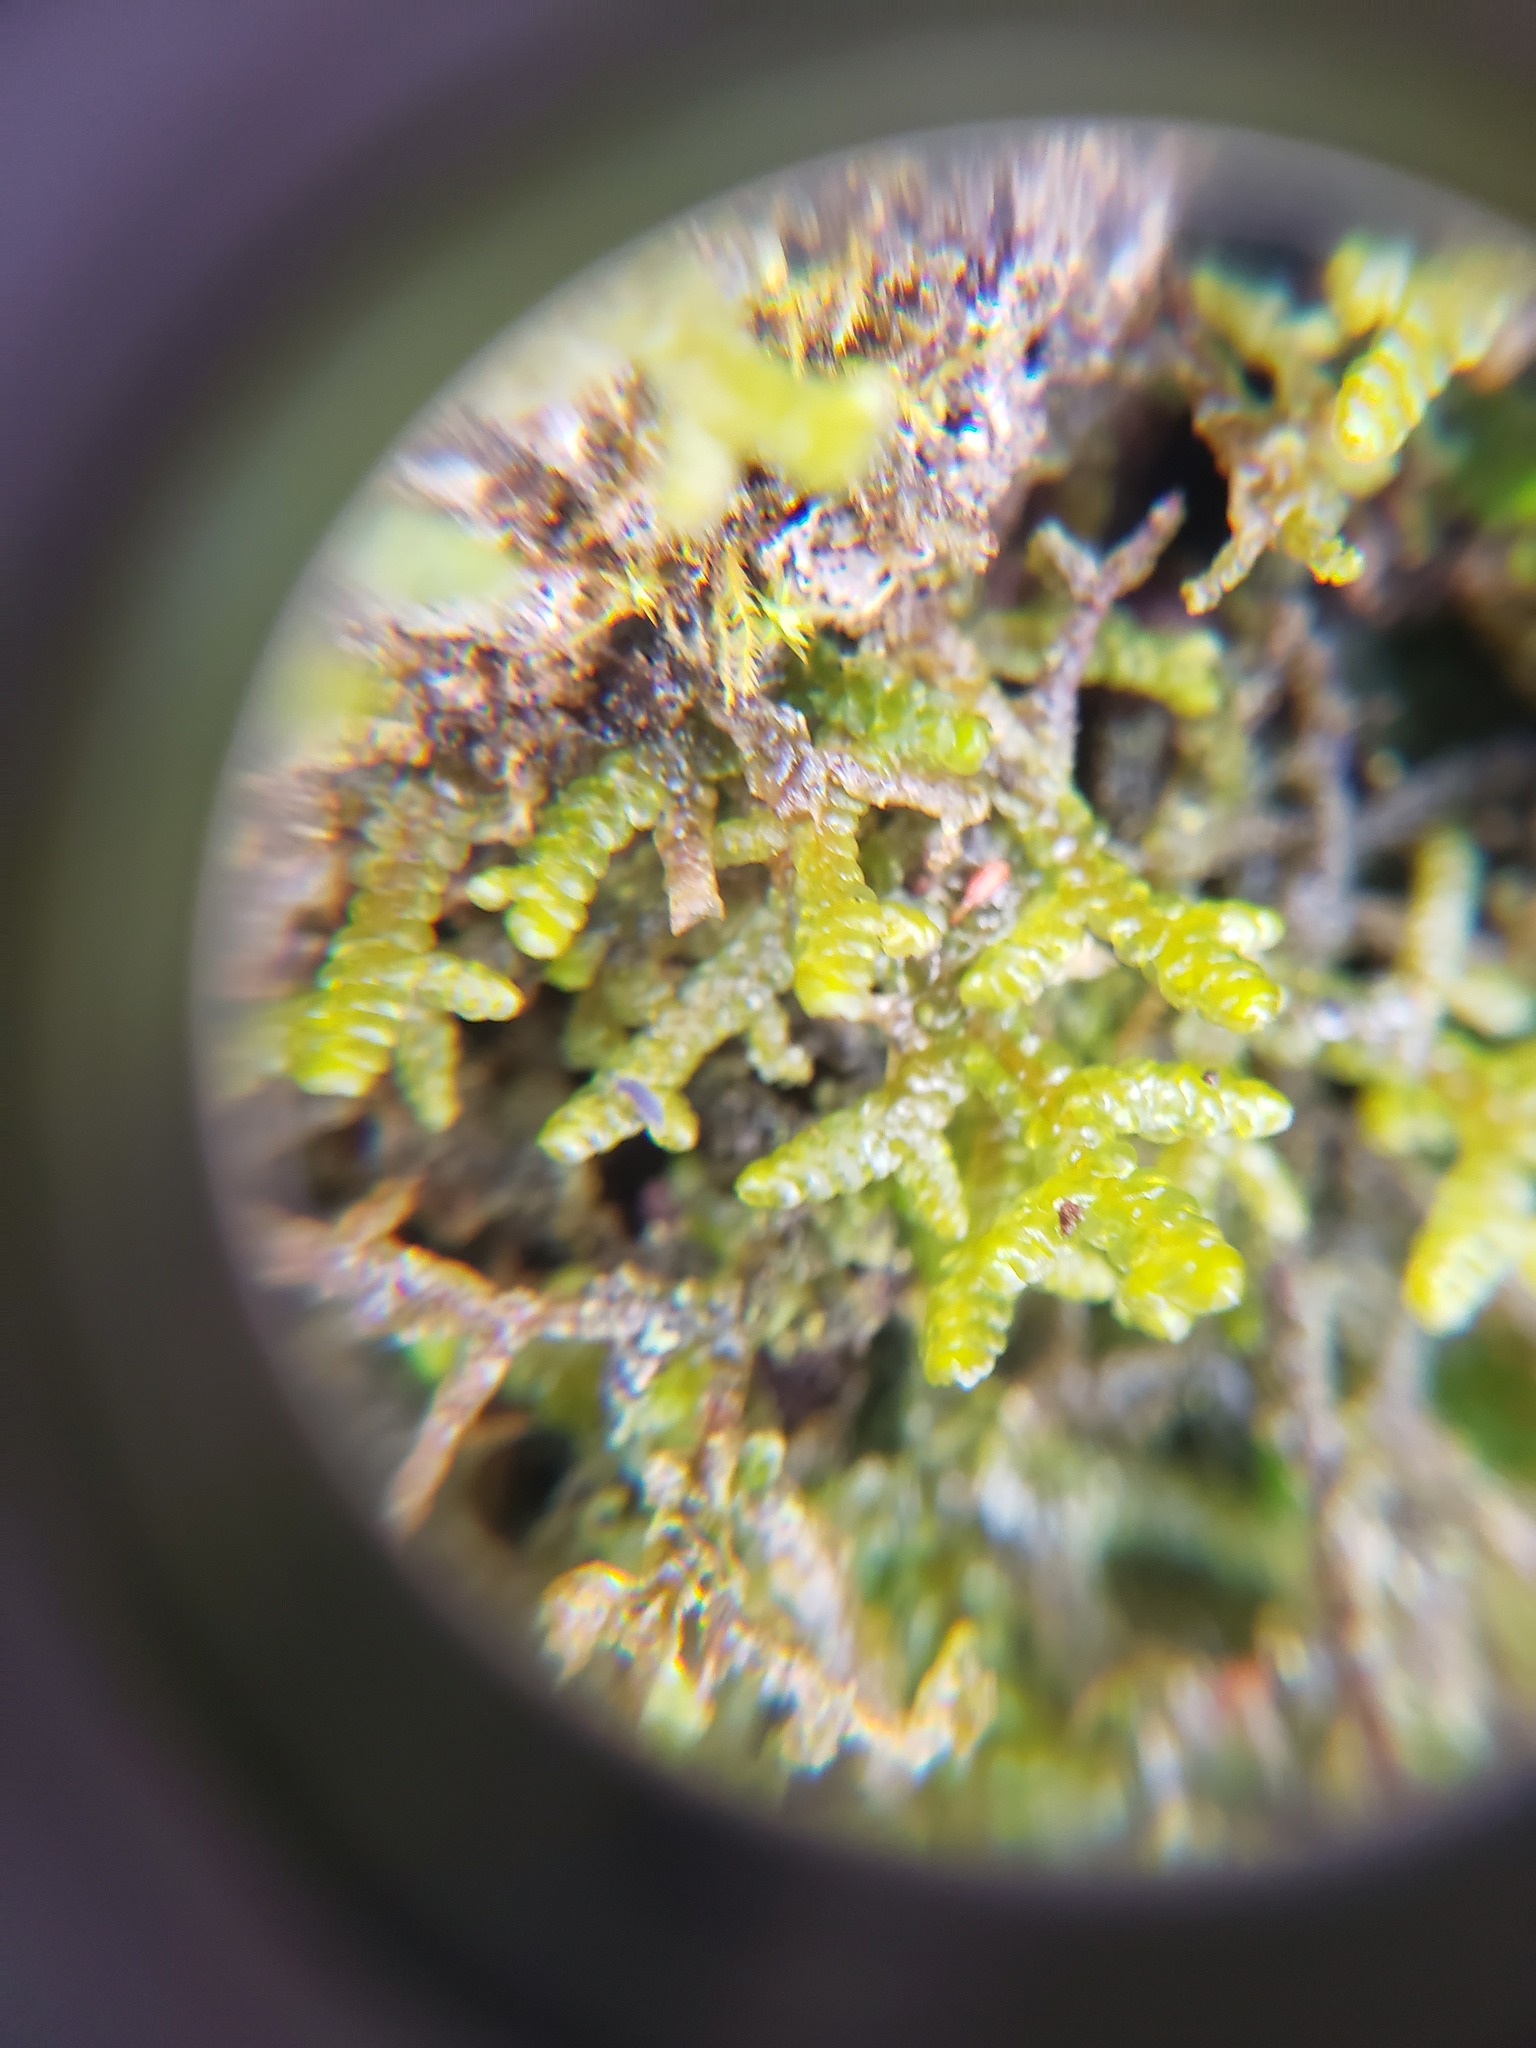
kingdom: Plantae
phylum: Marchantiophyta
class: Jungermanniopsida
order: Porellales
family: Porellaceae
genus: Porella
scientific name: Porella platyphylla
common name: Wall scalewort
